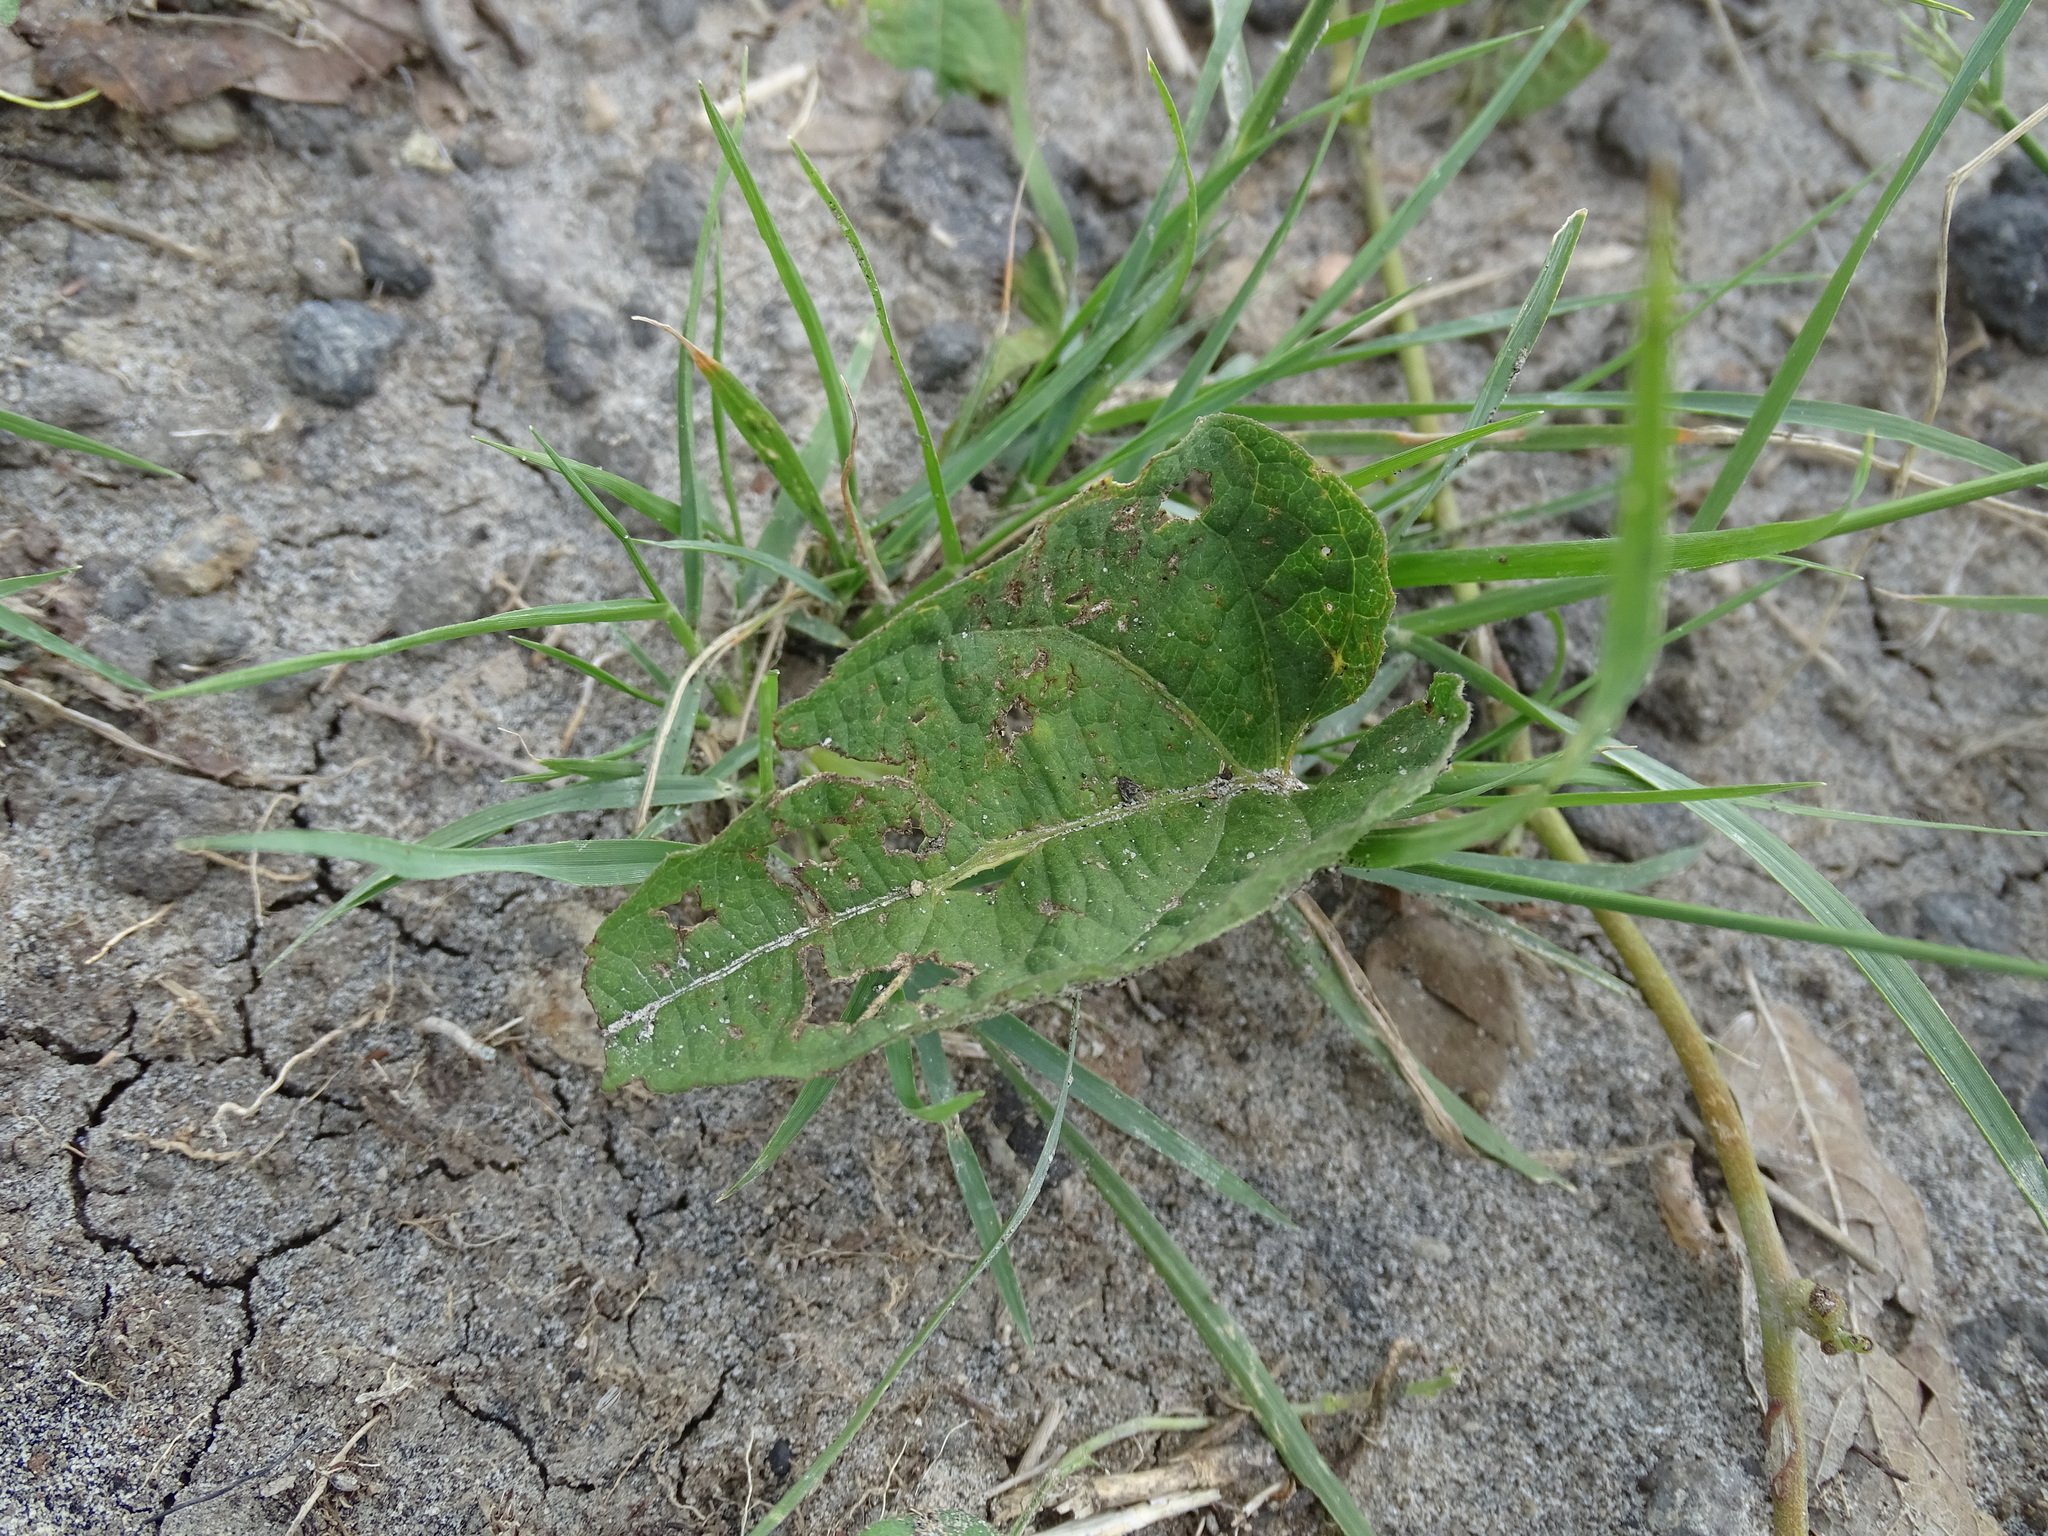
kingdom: Plantae
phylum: Tracheophyta
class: Magnoliopsida
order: Solanales
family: Convolvulaceae
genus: Ipomoea
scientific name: Ipomoea proxima
